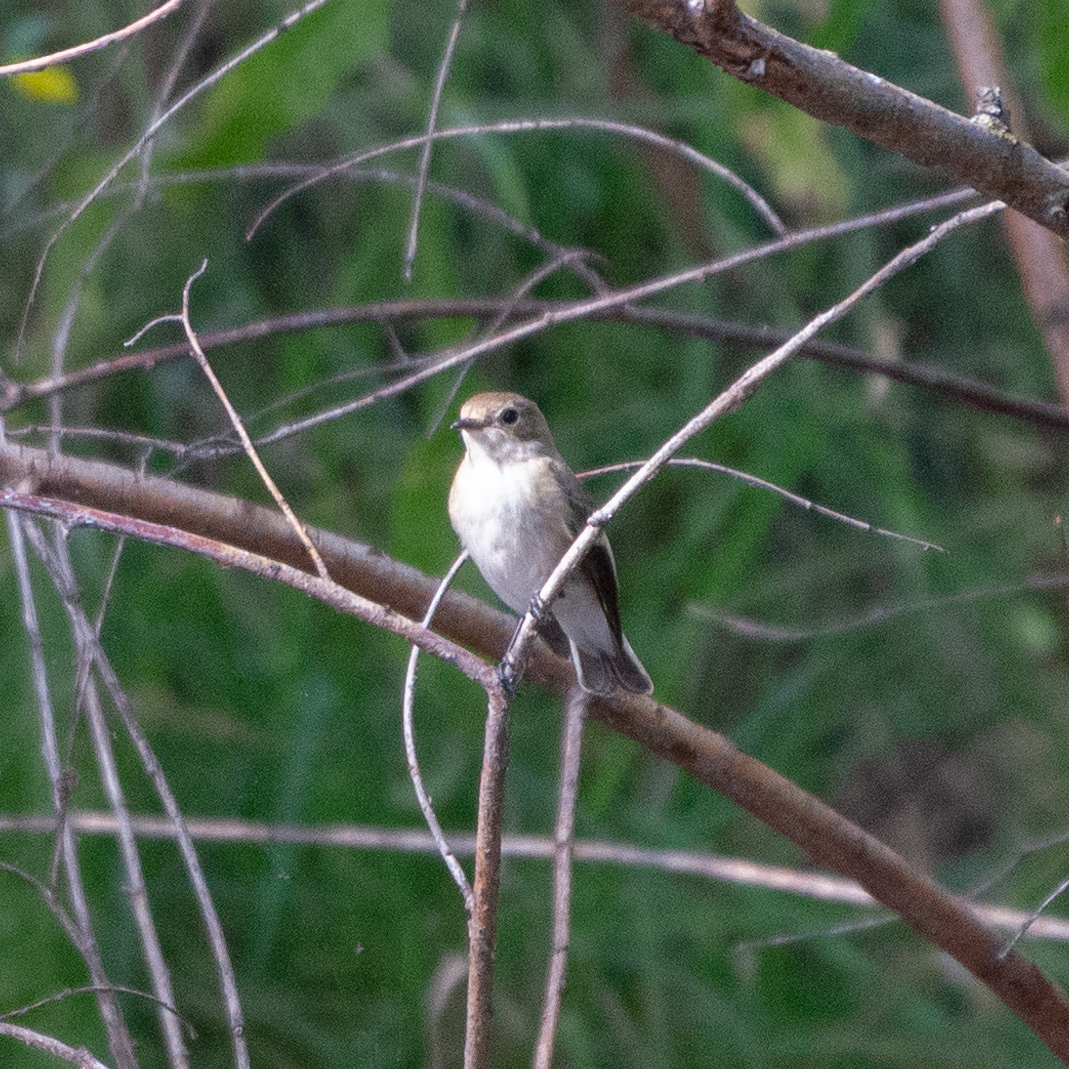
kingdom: Animalia
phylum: Chordata
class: Aves
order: Passeriformes
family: Muscicapidae
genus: Ficedula
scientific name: Ficedula hypoleuca
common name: European pied flycatcher
